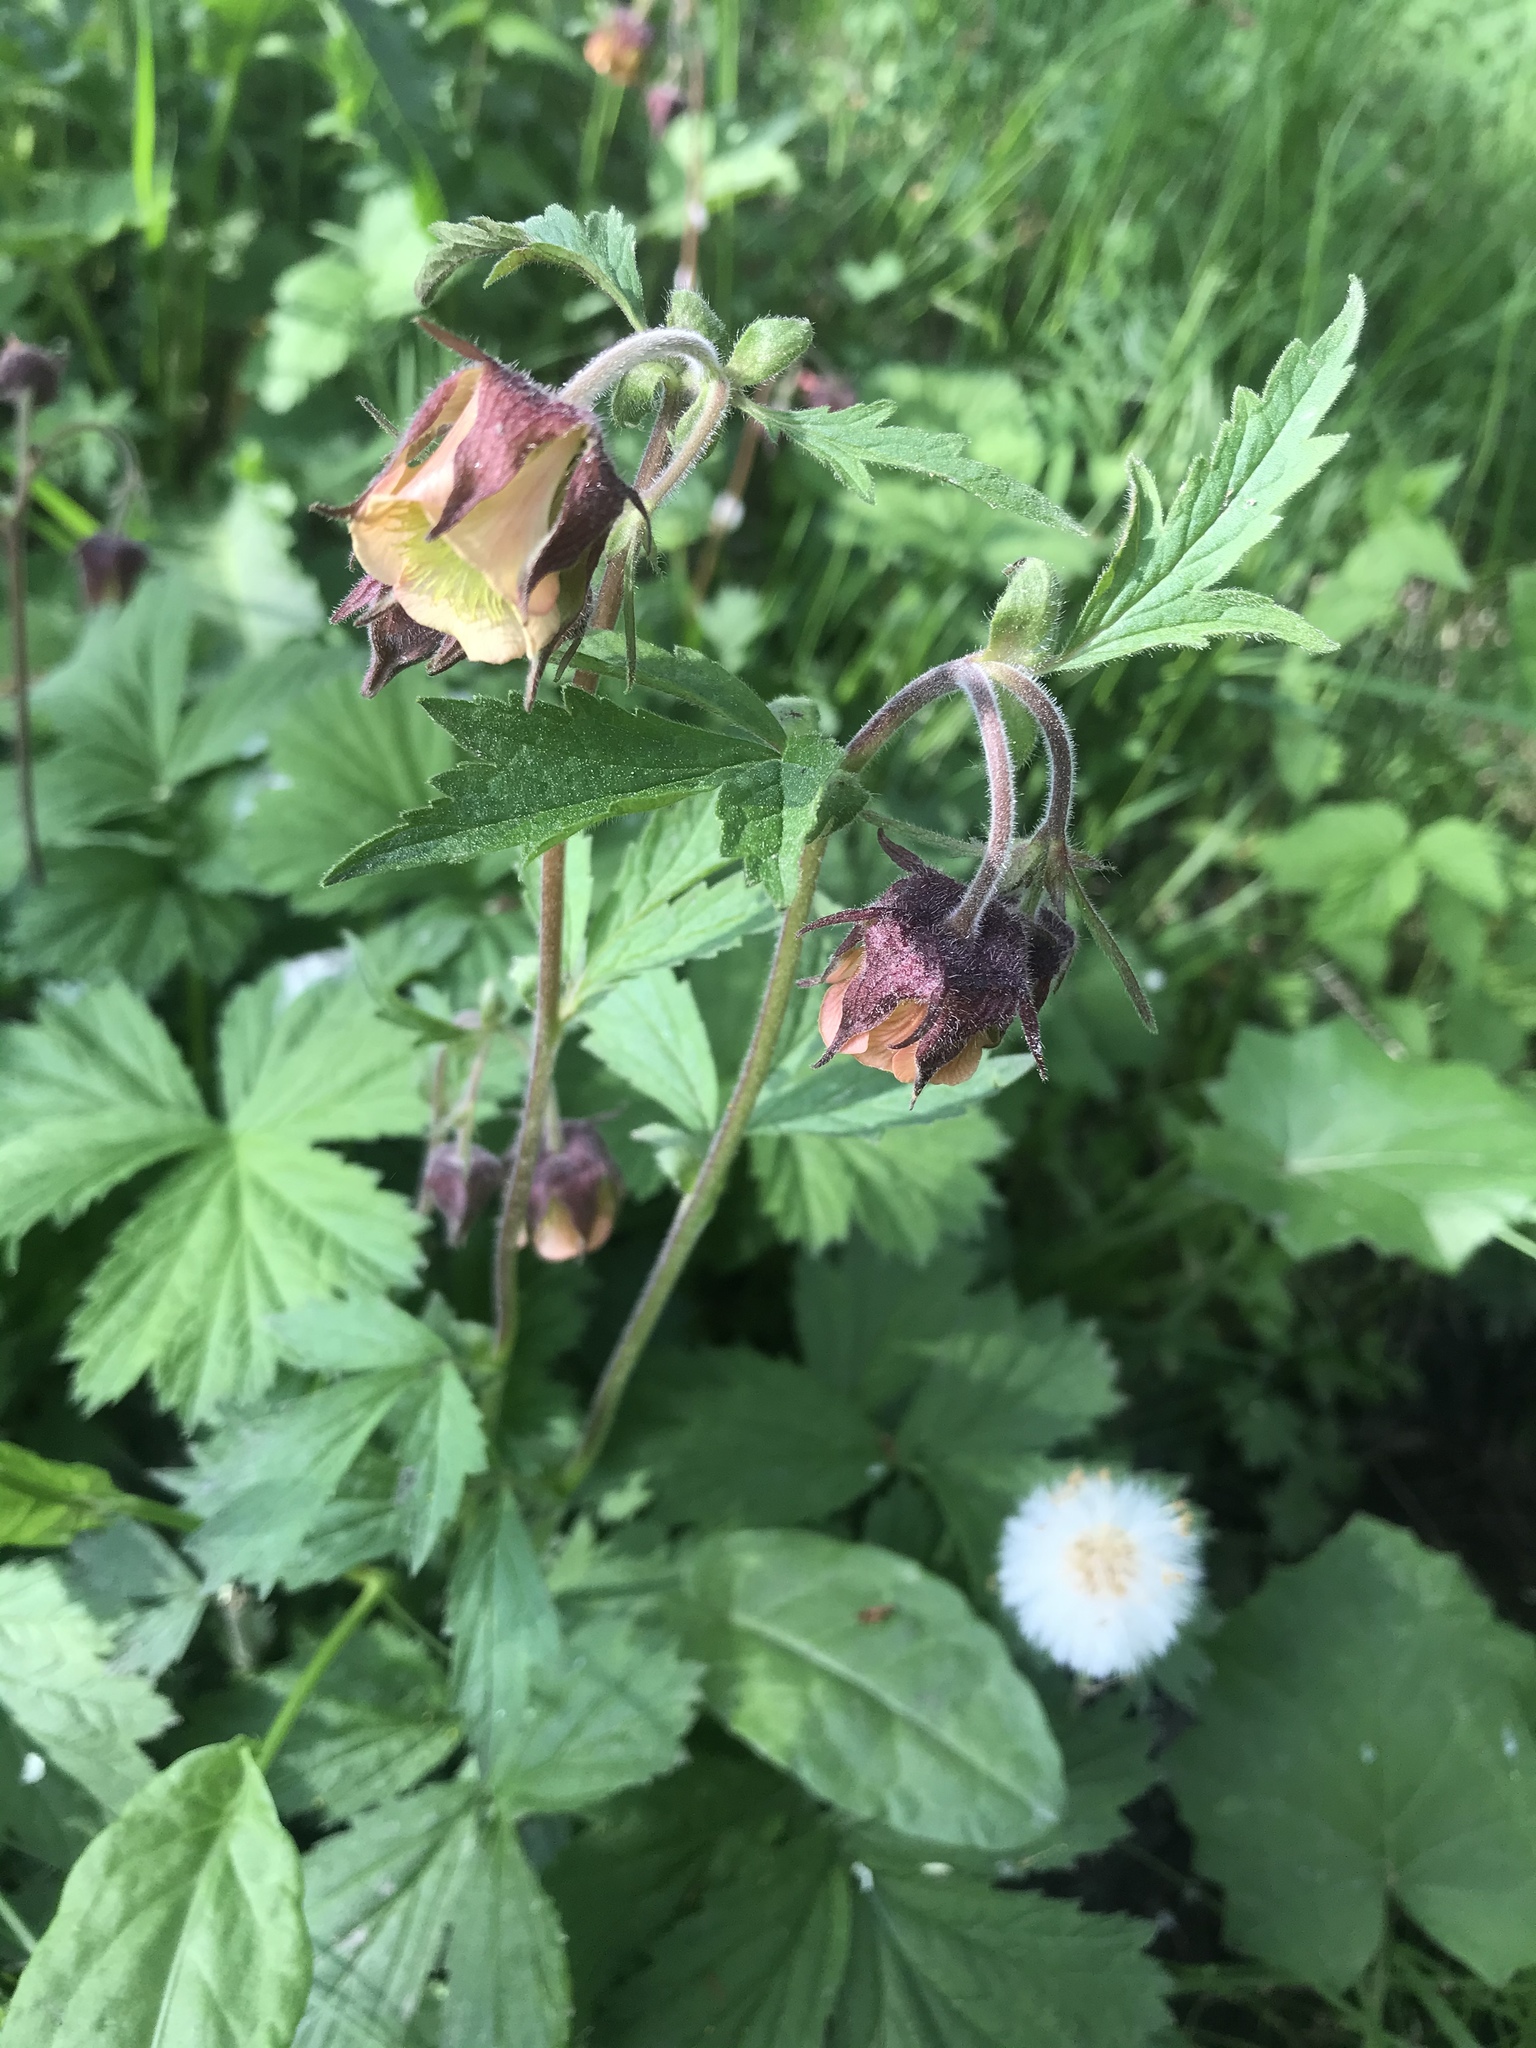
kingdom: Plantae
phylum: Tracheophyta
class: Magnoliopsida
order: Rosales
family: Rosaceae
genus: Geum
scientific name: Geum rivale
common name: Water avens
